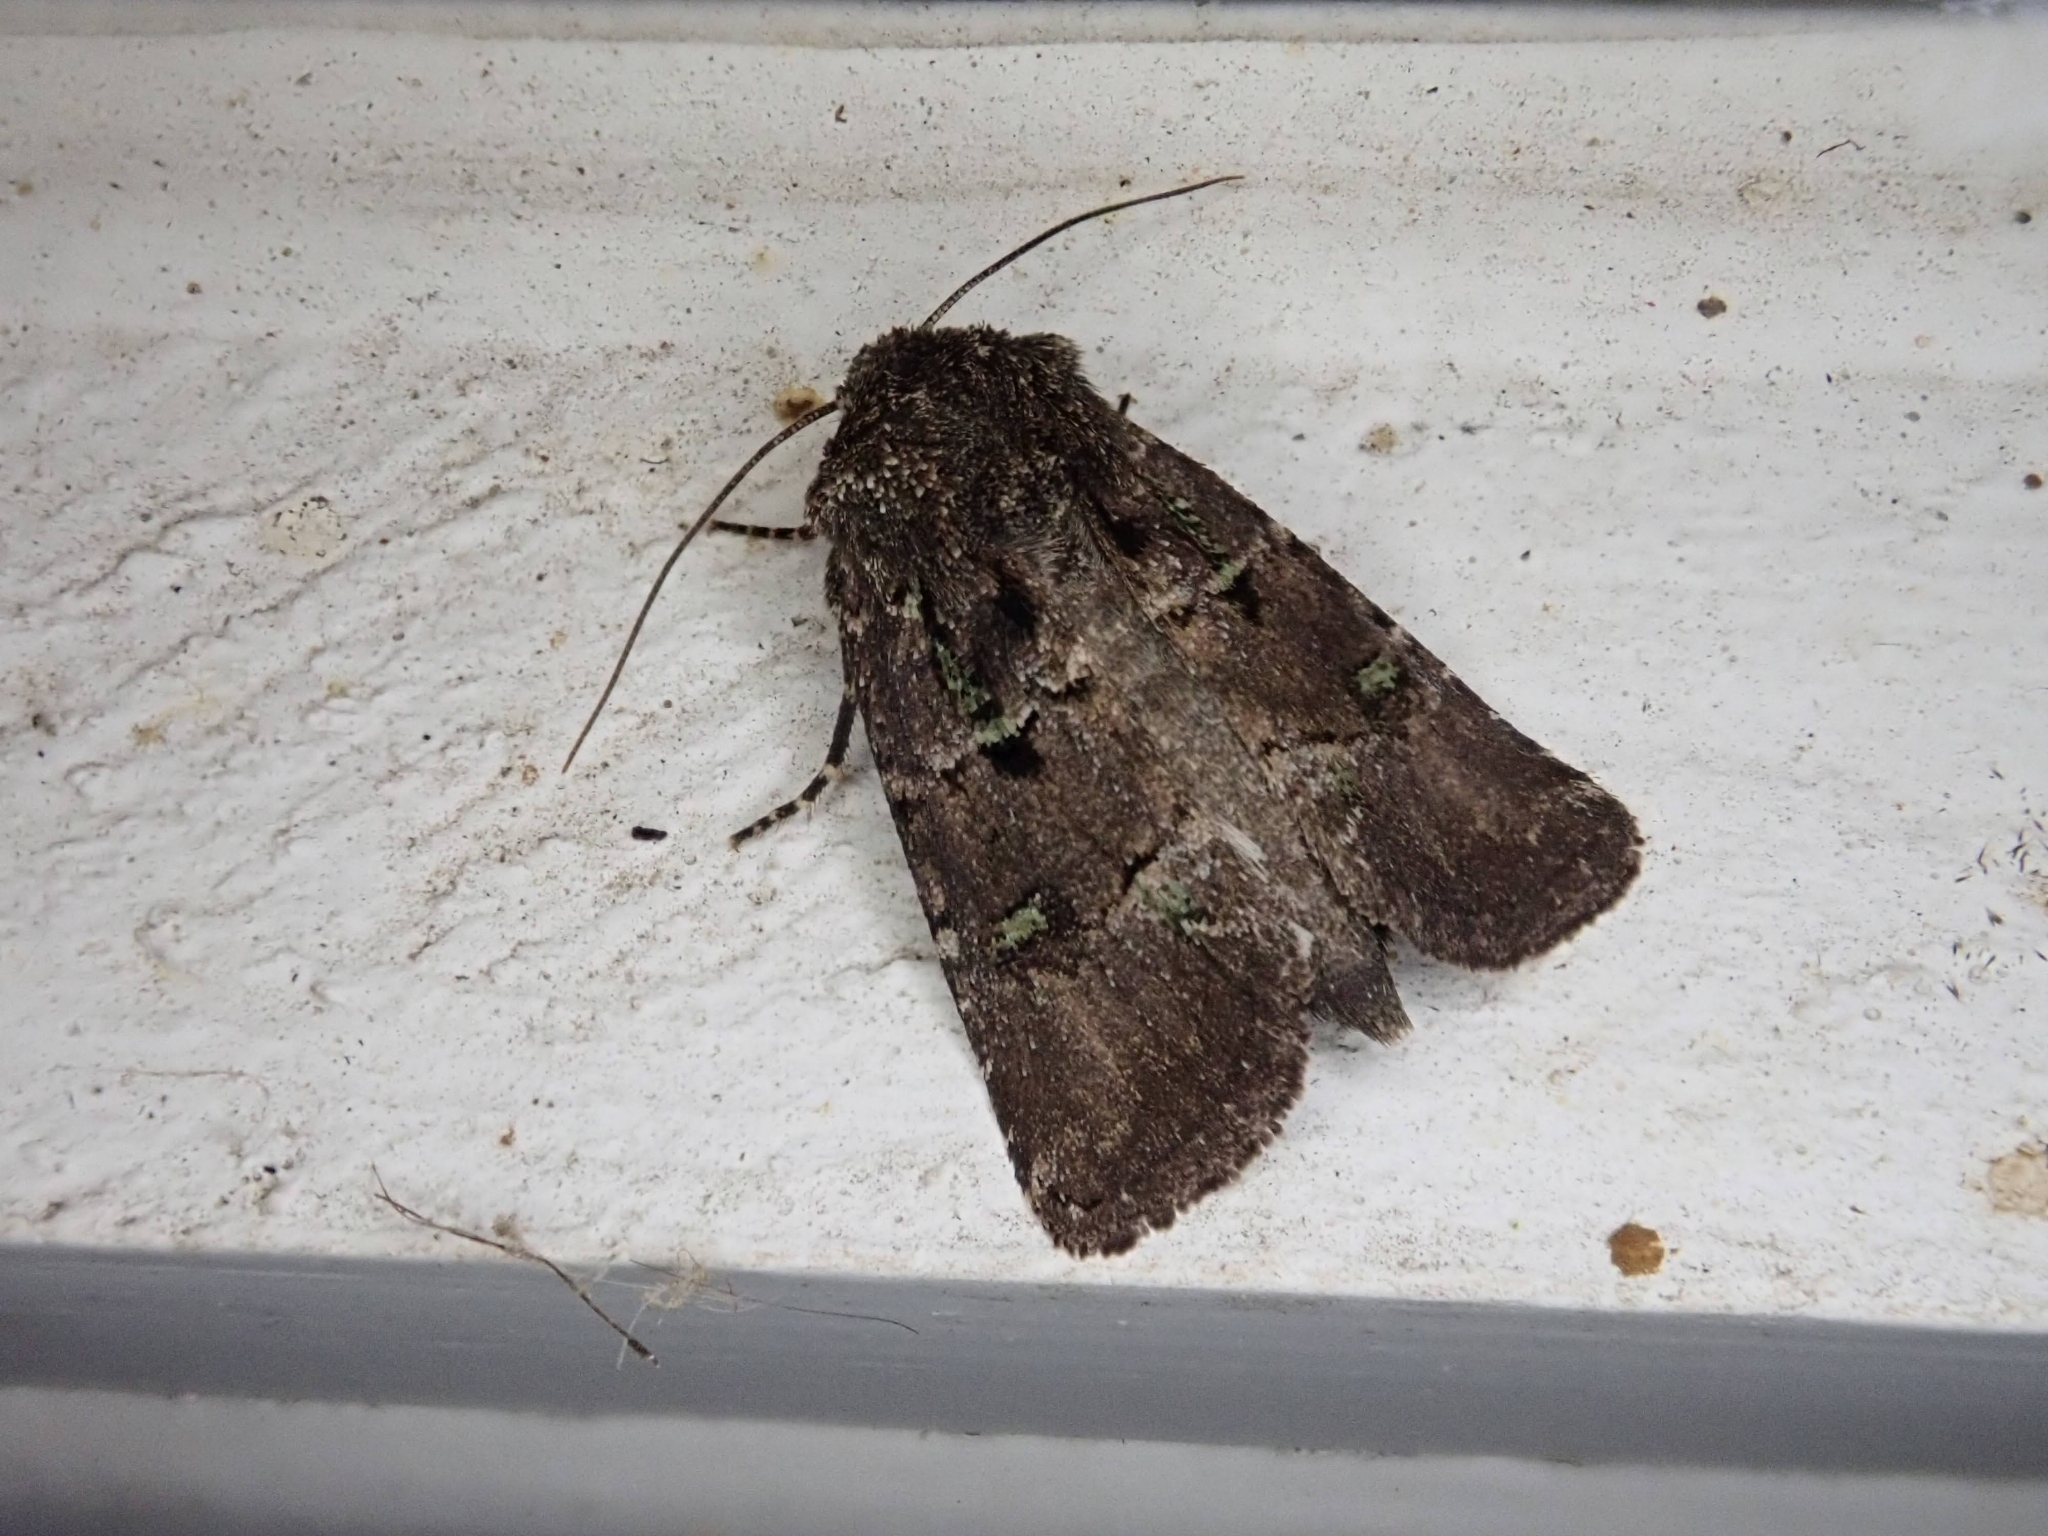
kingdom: Animalia
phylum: Arthropoda
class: Insecta
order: Lepidoptera
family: Noctuidae
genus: Lacinipolia
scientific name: Lacinipolia renigera
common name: Kidney-spotted minor
